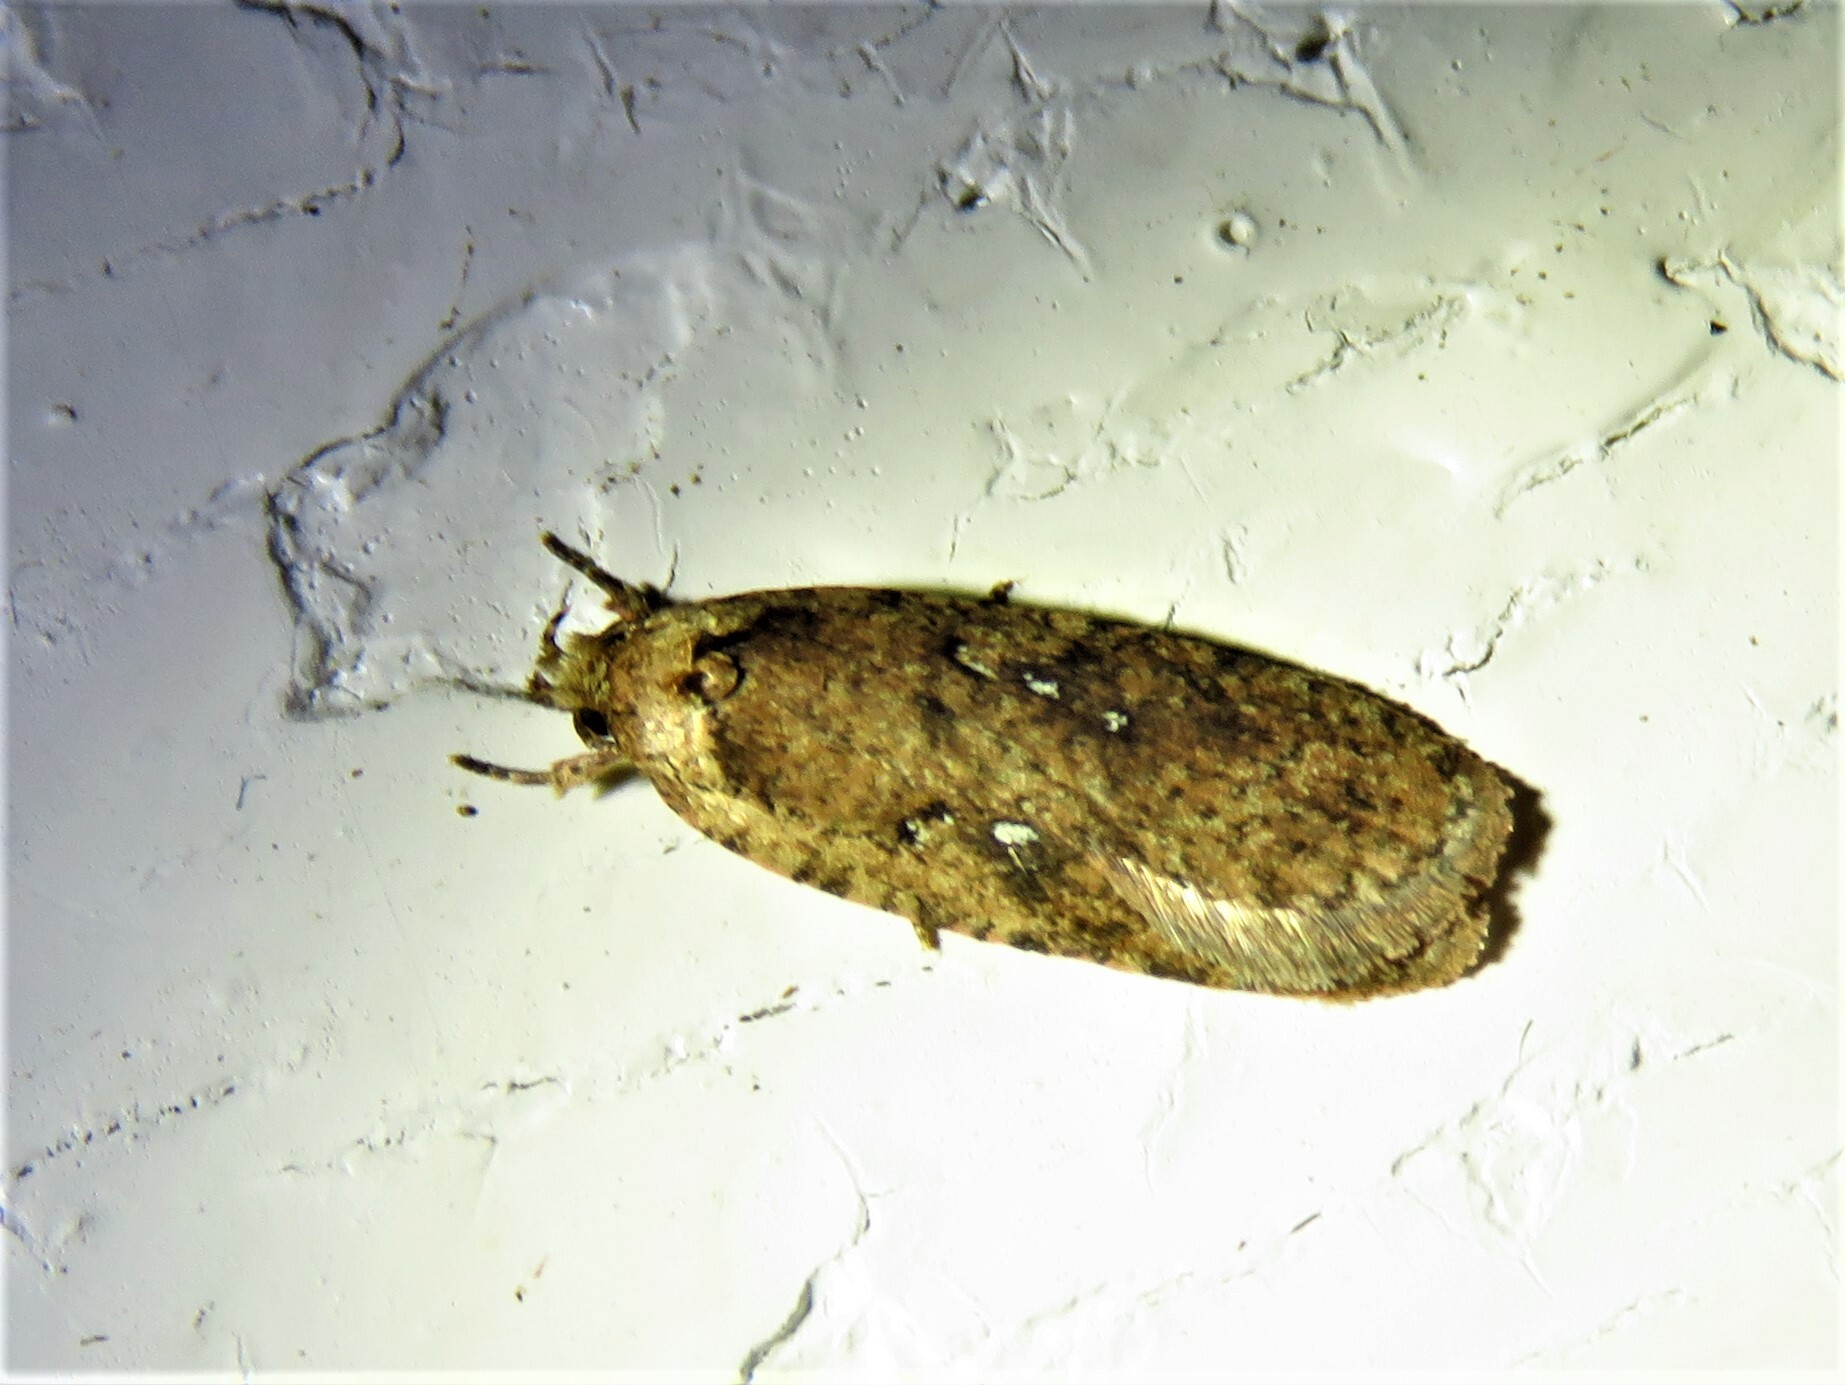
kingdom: Animalia
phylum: Arthropoda
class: Insecta
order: Lepidoptera
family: Depressariidae
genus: Agonopterix
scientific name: Agonopterix heracliana
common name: Common flat-body
